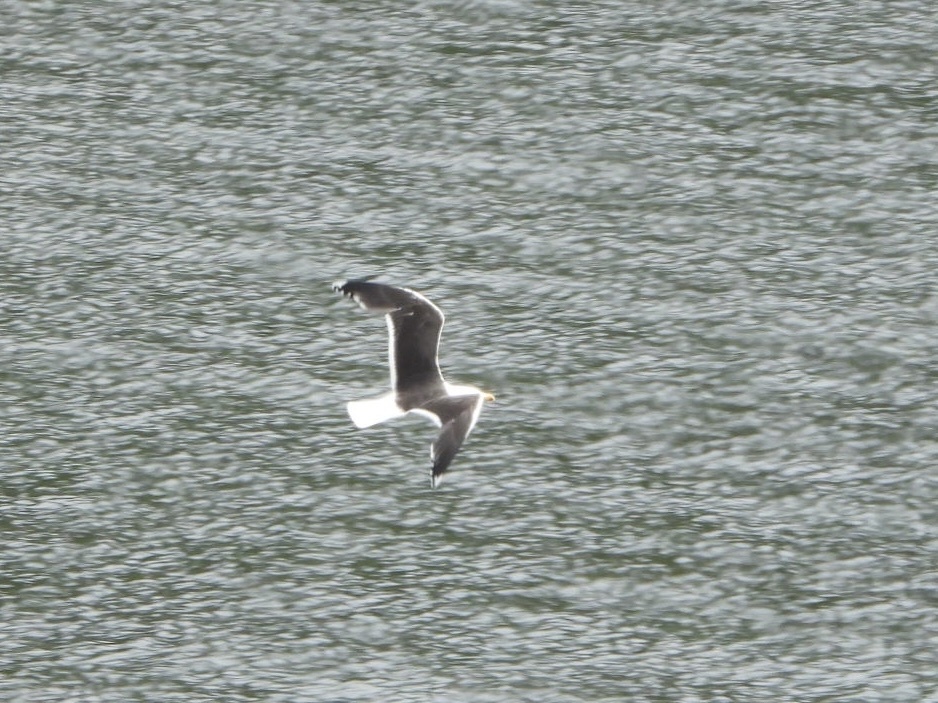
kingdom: Animalia
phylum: Chordata
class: Aves
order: Charadriiformes
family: Laridae
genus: Larus
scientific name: Larus marinus
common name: Great black-backed gull
